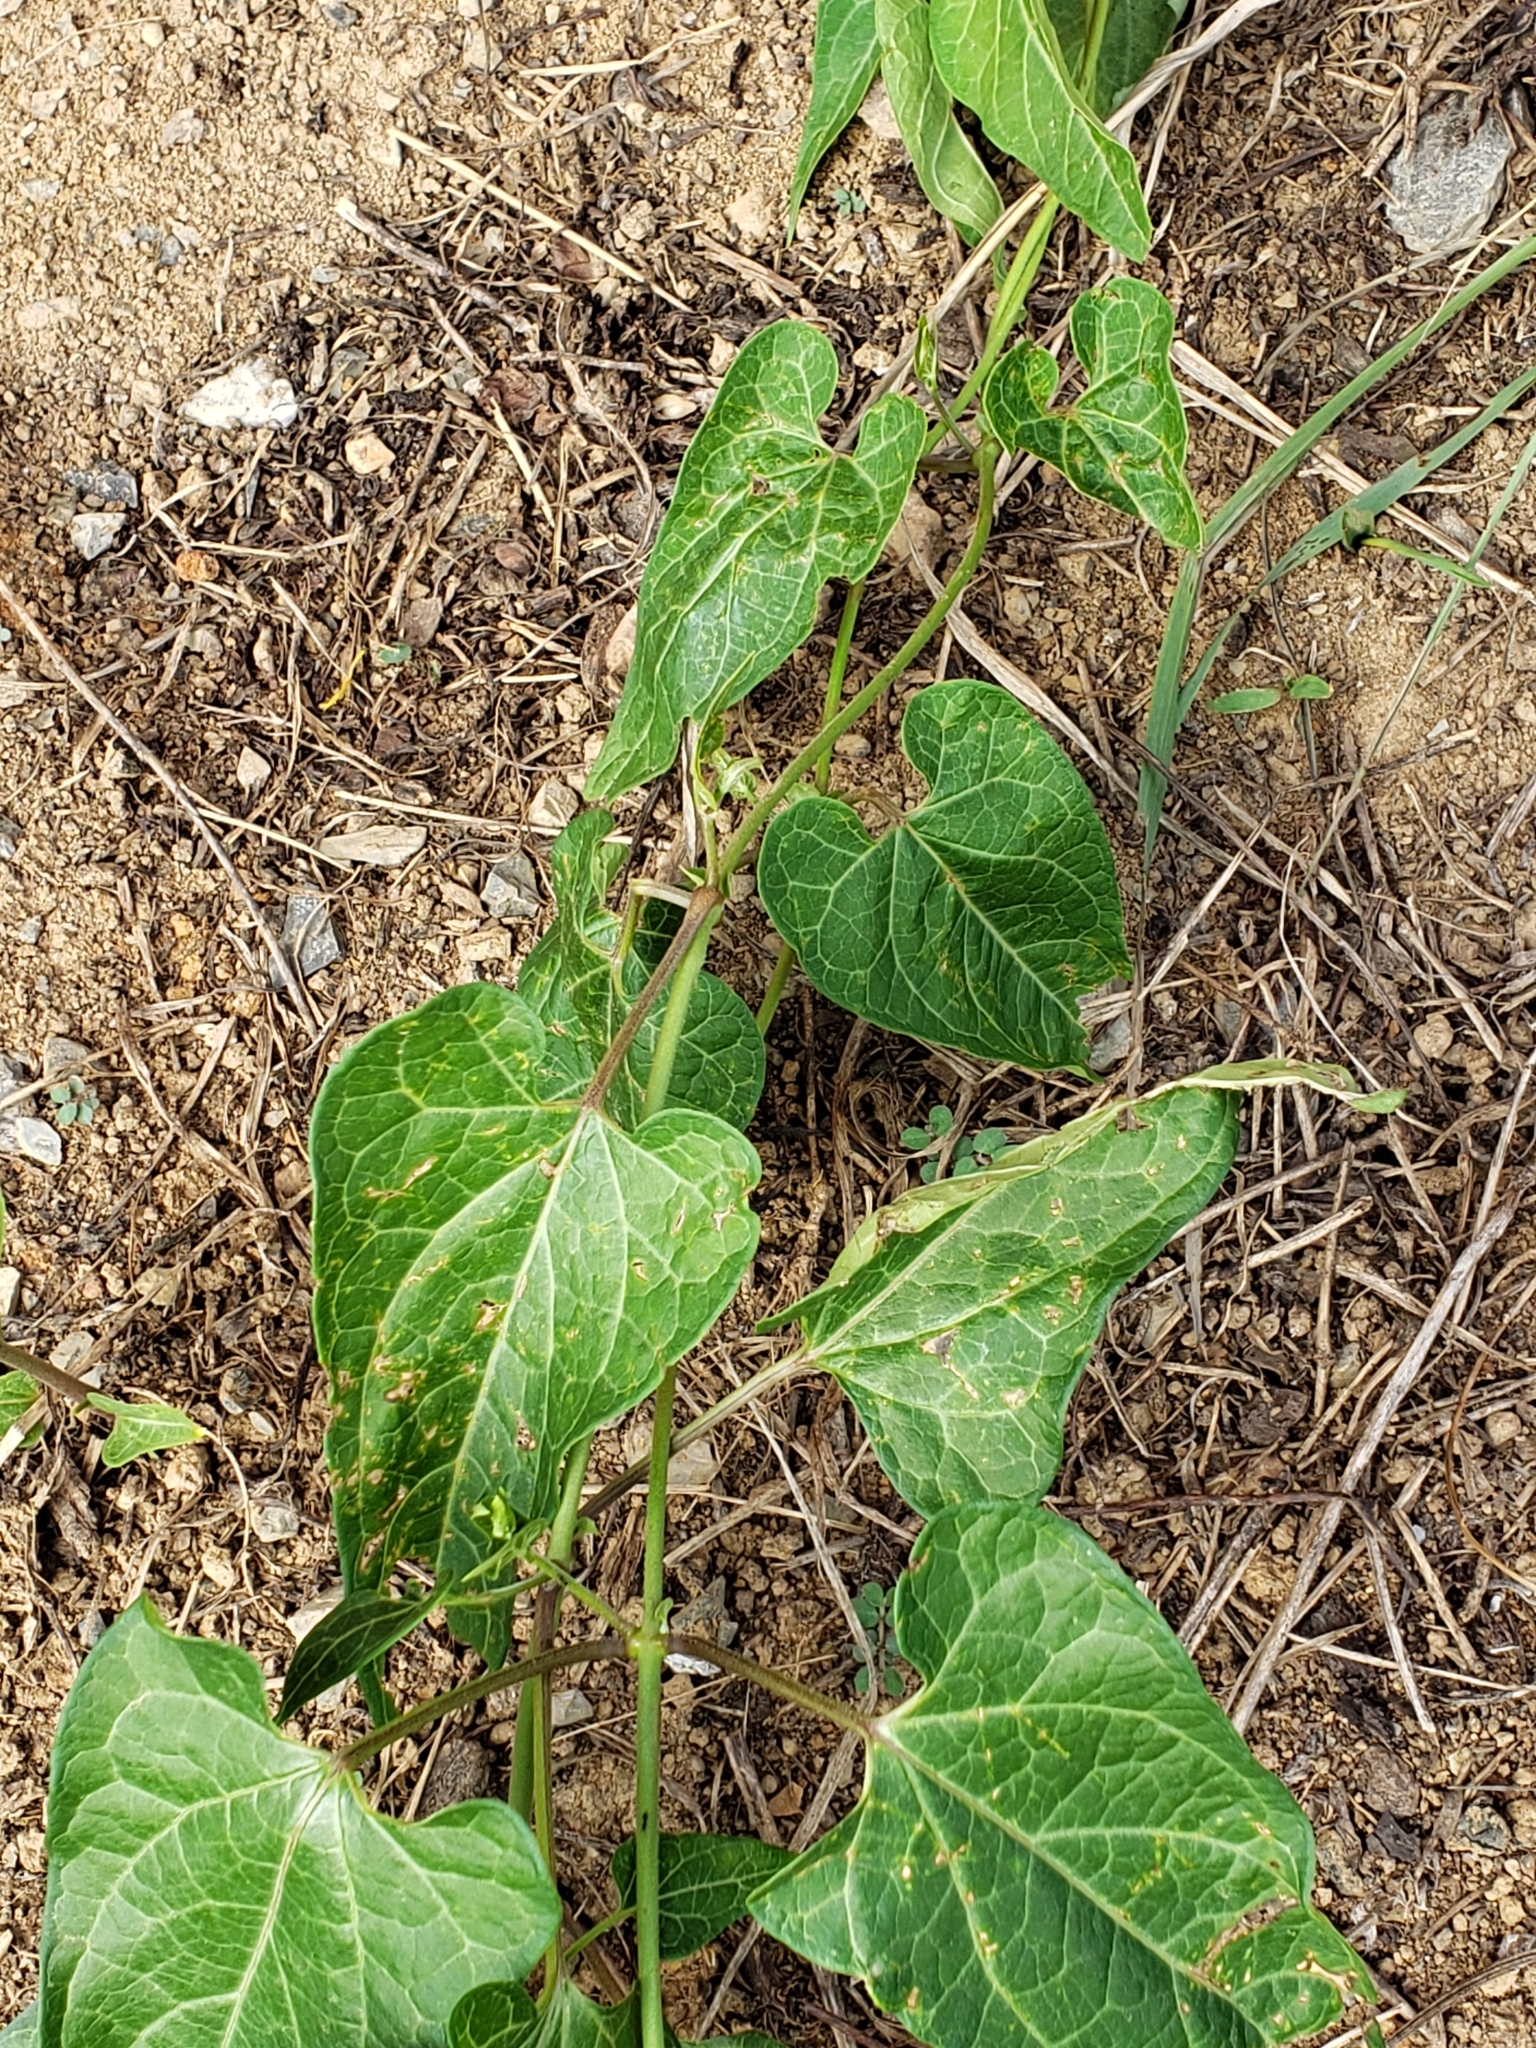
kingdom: Plantae
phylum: Tracheophyta
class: Magnoliopsida
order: Gentianales
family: Apocynaceae
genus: Cynanchum
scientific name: Cynanchum laeve
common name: Sandvine
